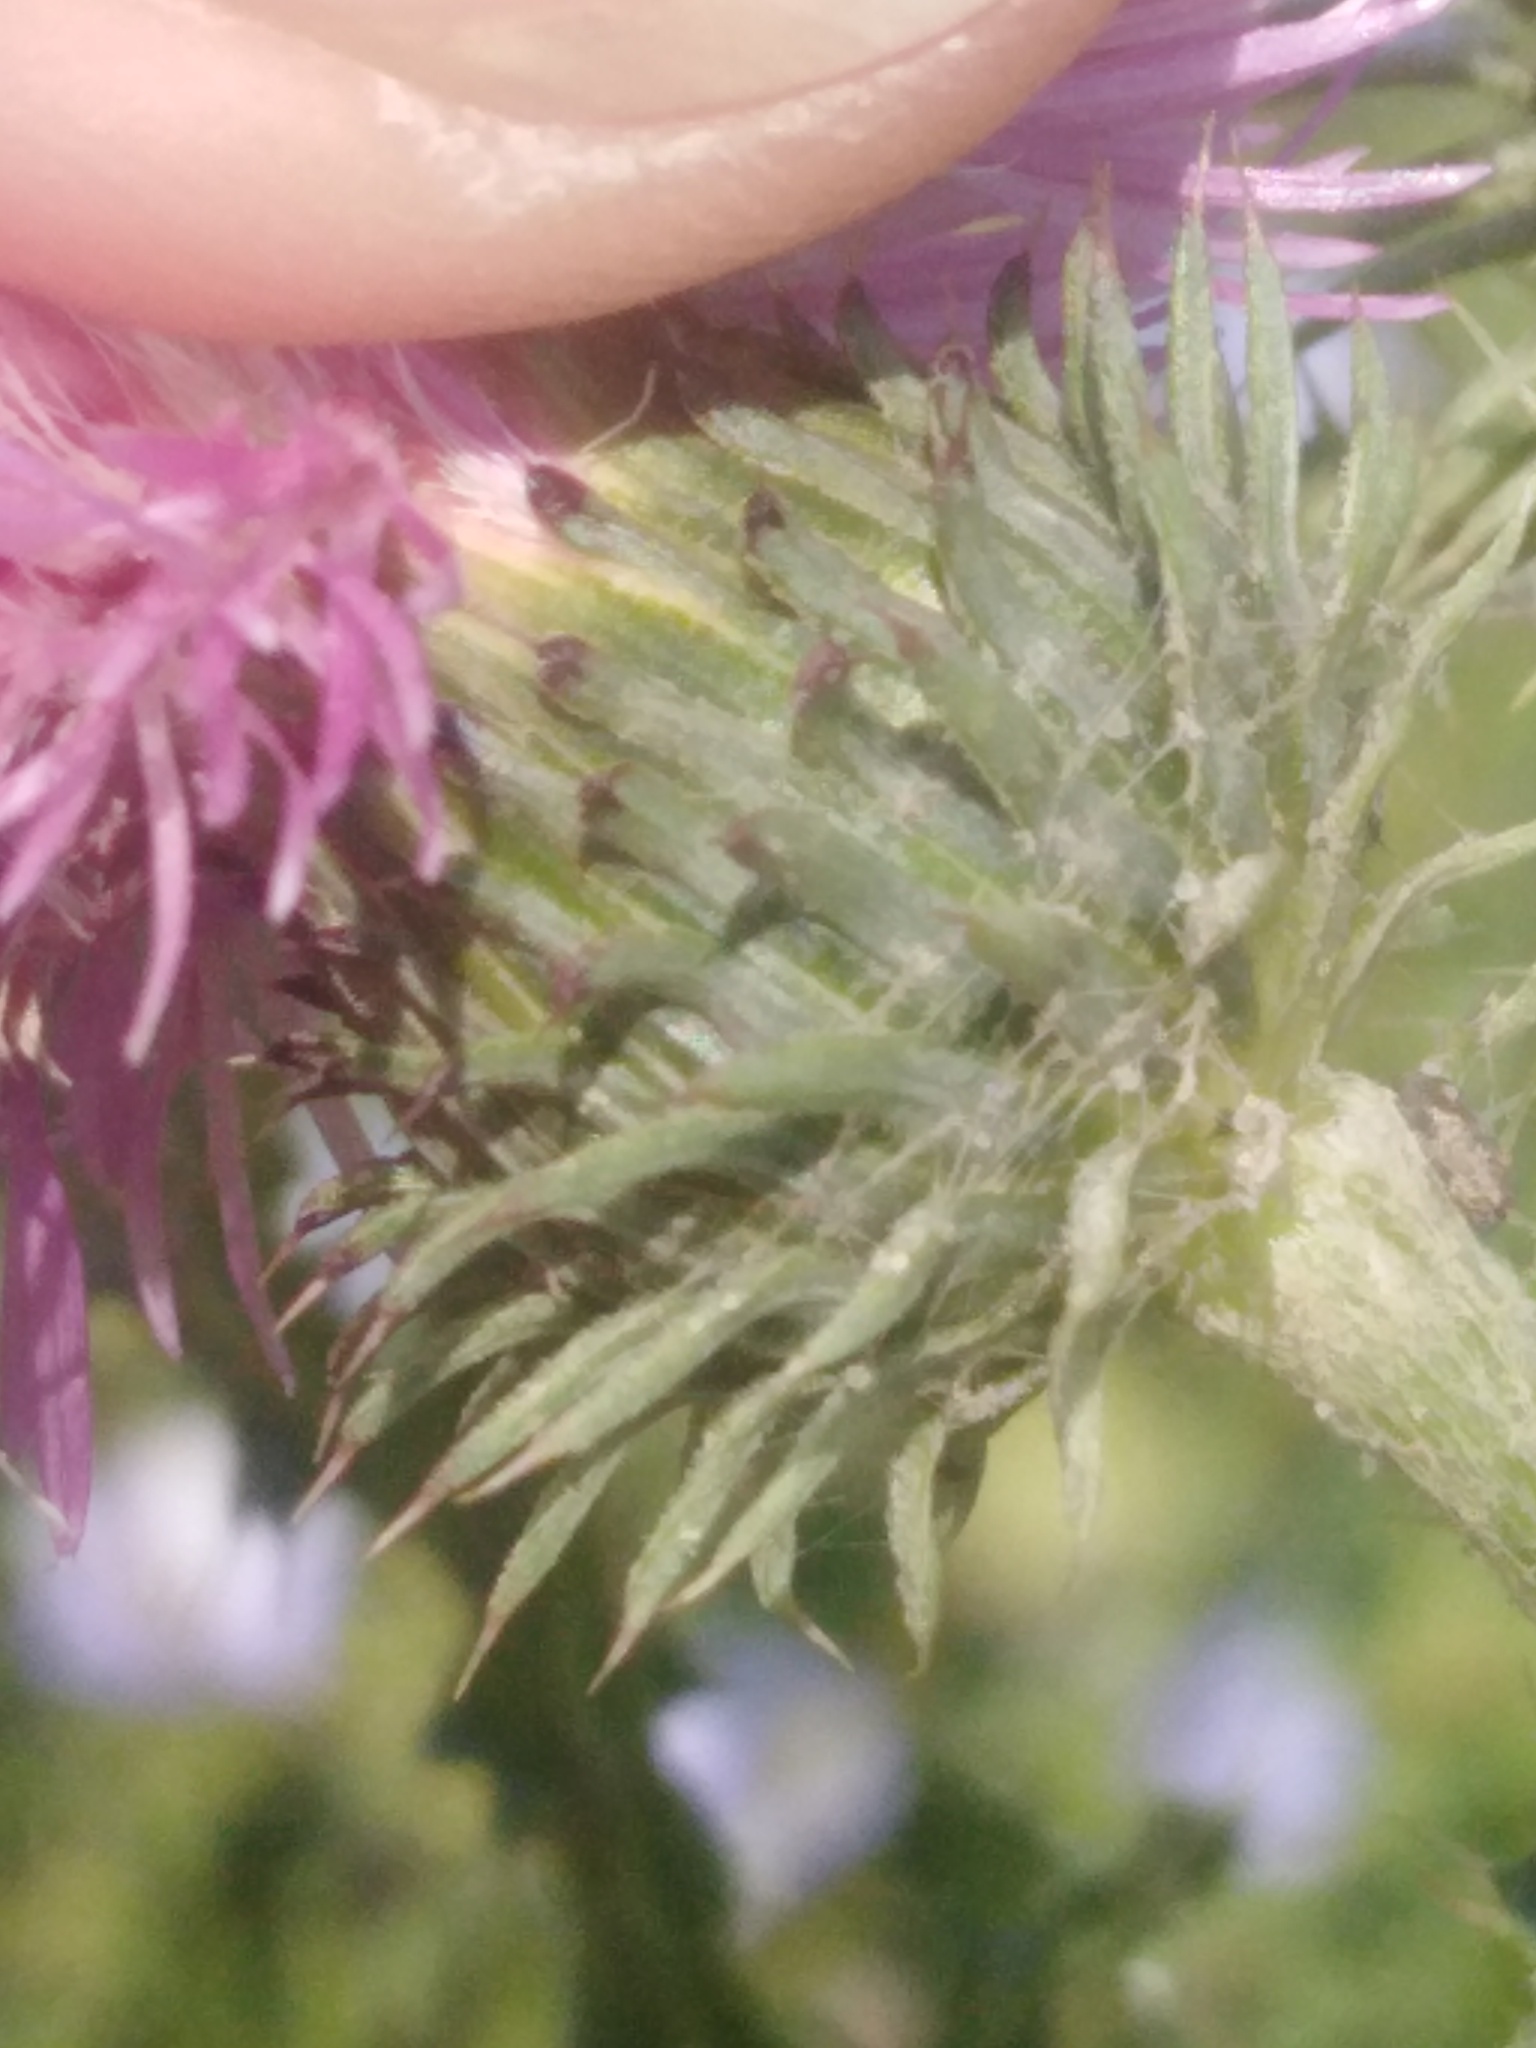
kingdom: Plantae
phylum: Tracheophyta
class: Magnoliopsida
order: Asterales
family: Asteraceae
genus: Carduus
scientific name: Carduus acanthoides
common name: Plumeless thistle
